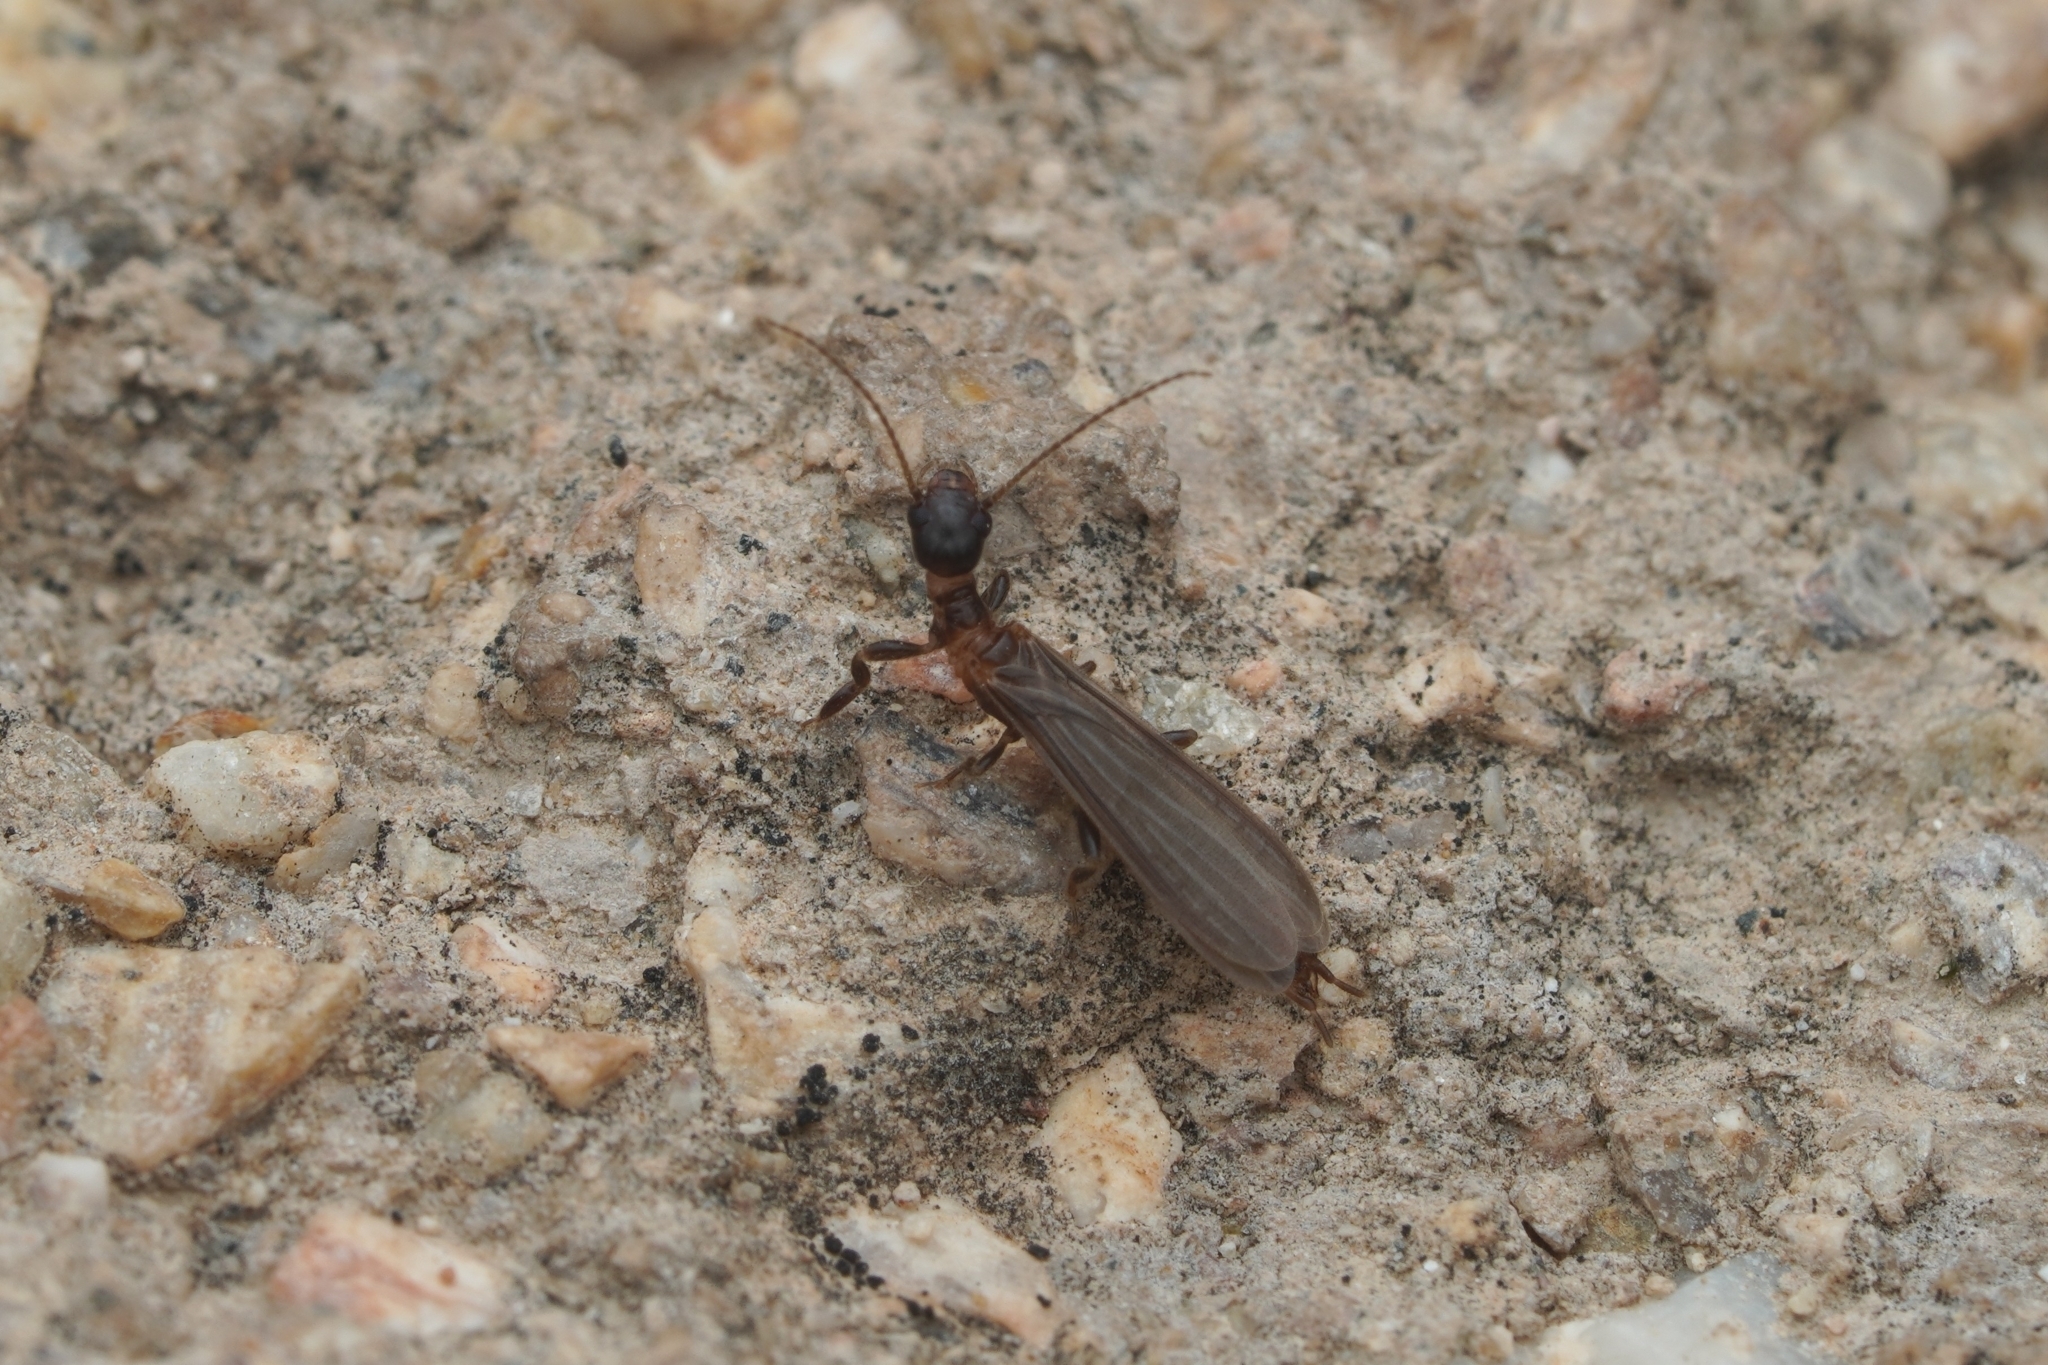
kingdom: Animalia
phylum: Arthropoda
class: Insecta
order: Embioptera
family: Oligotomidae
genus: Oligotoma
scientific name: Oligotoma nigra
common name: Black webspinner
